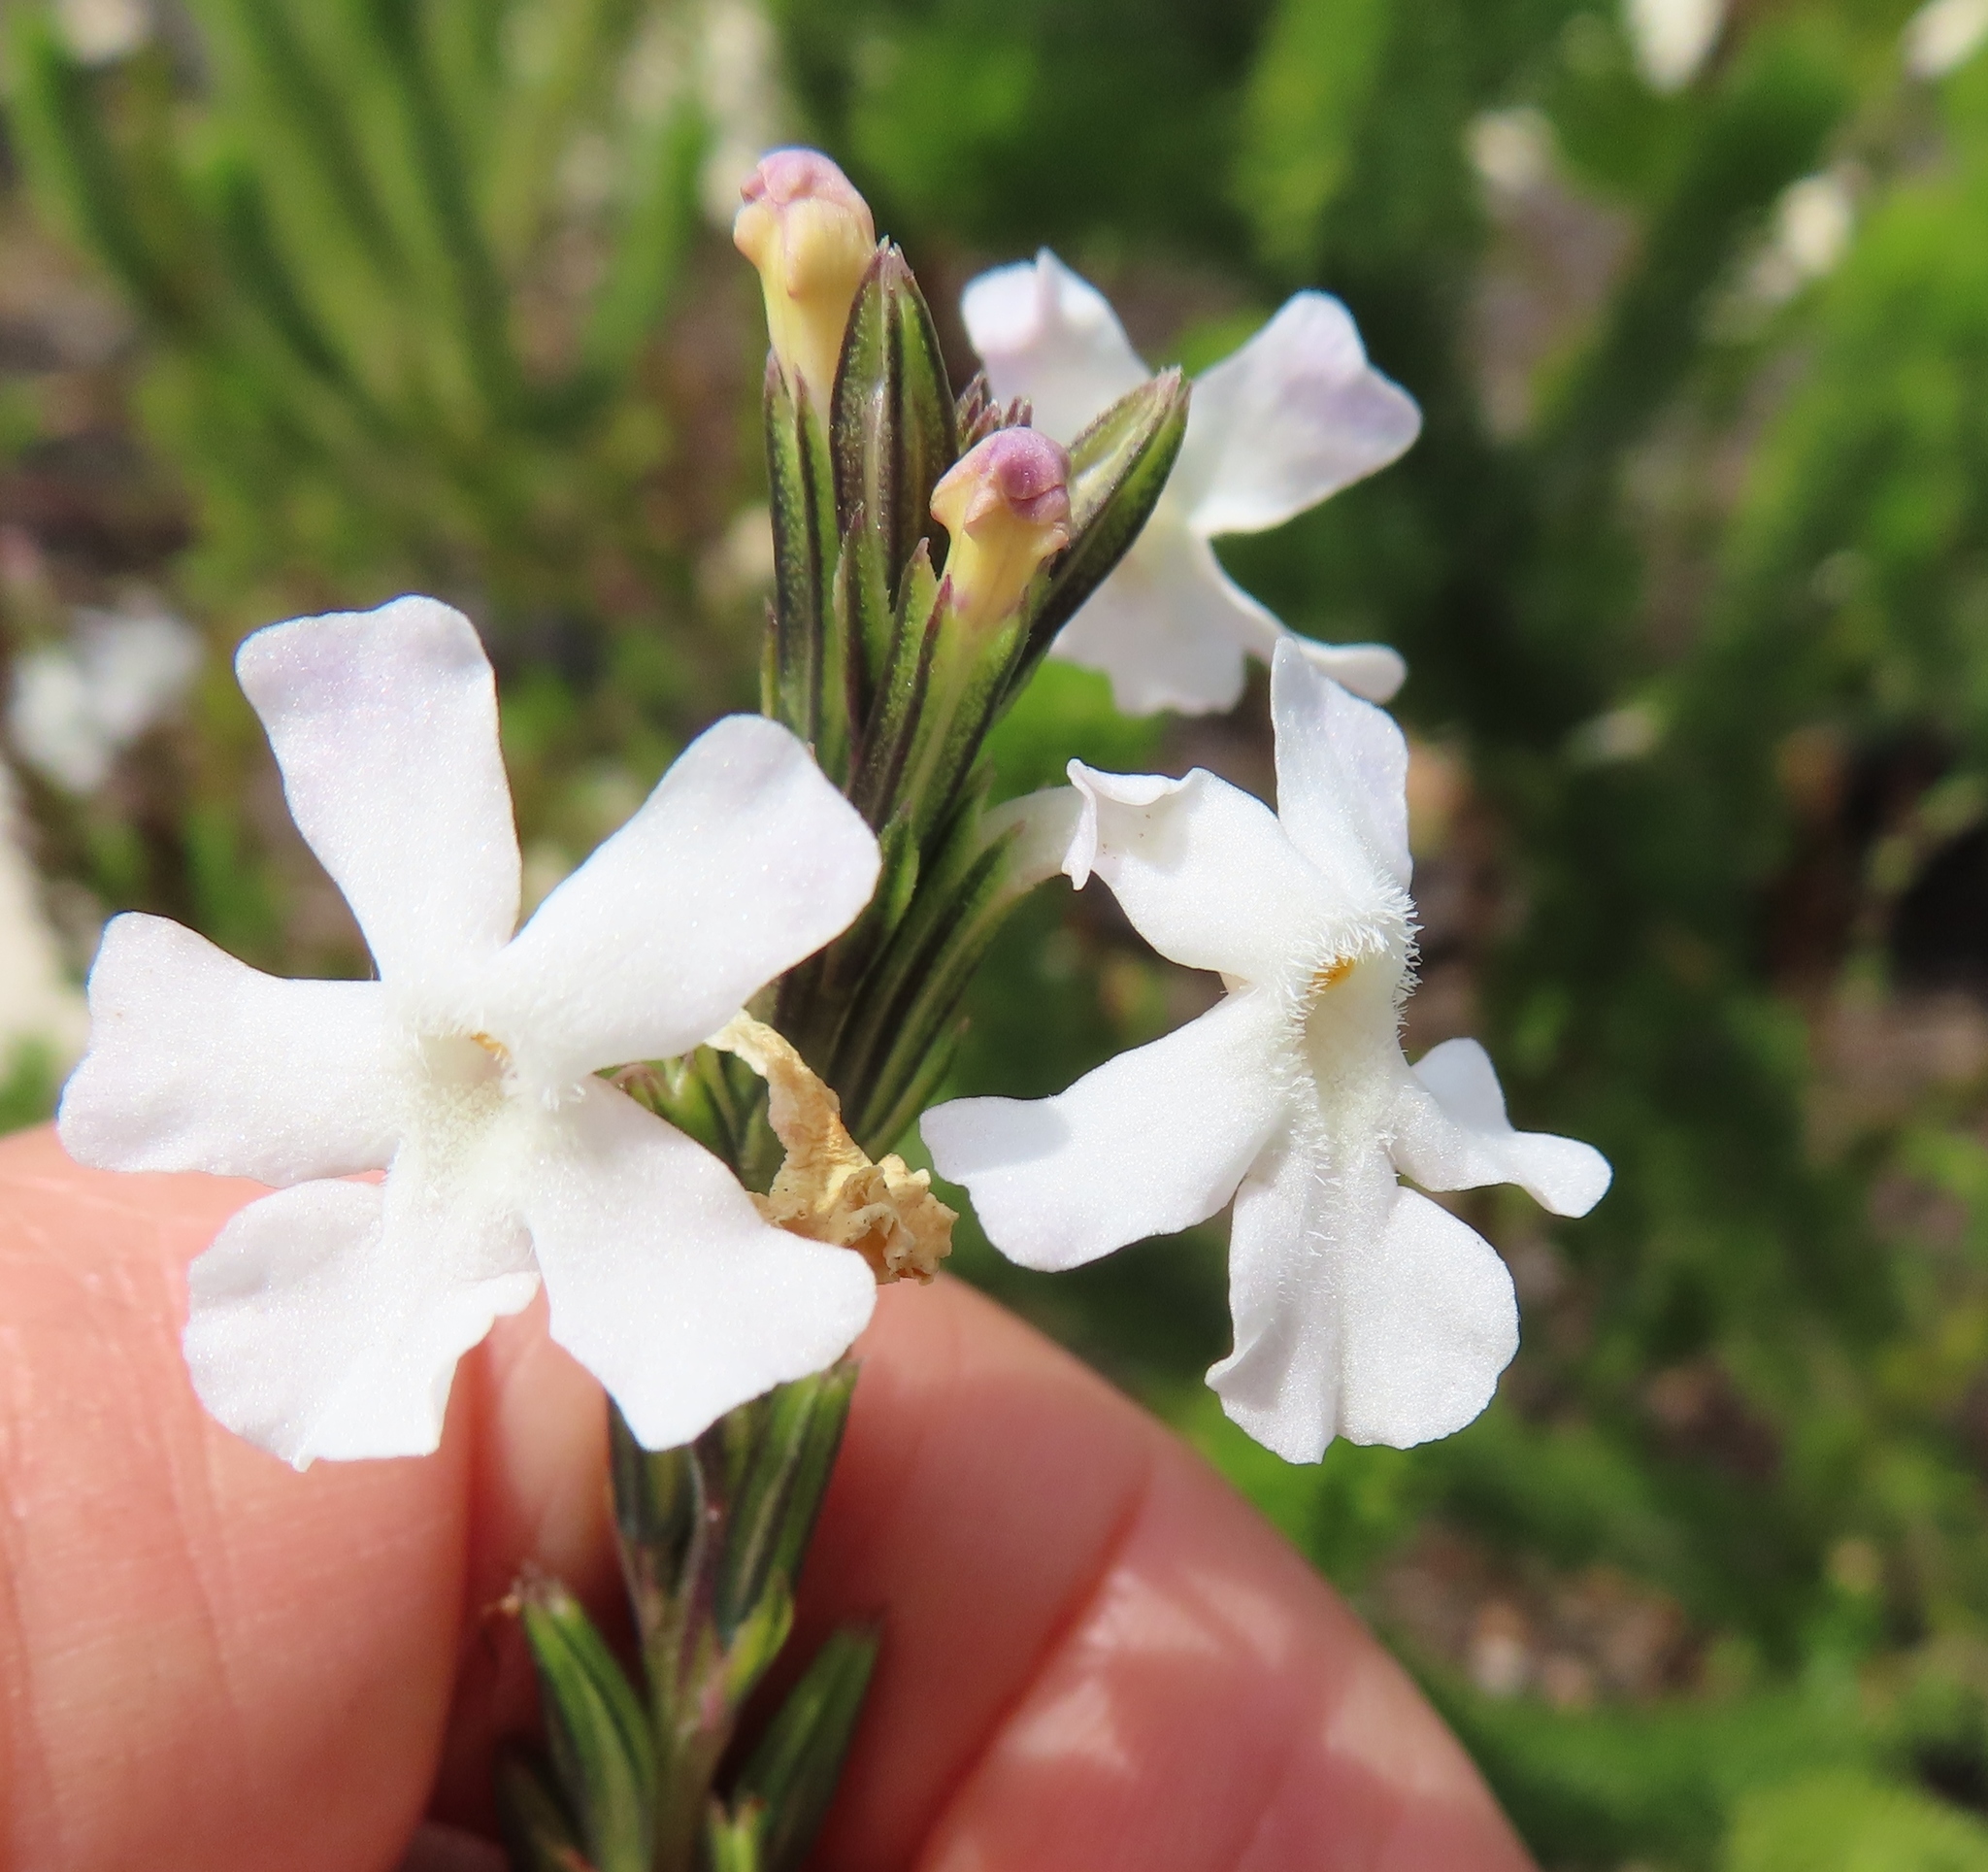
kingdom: Plantae
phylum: Tracheophyta
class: Magnoliopsida
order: Lamiales
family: Verbenaceae
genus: Chascanum
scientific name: Chascanum cernuum
